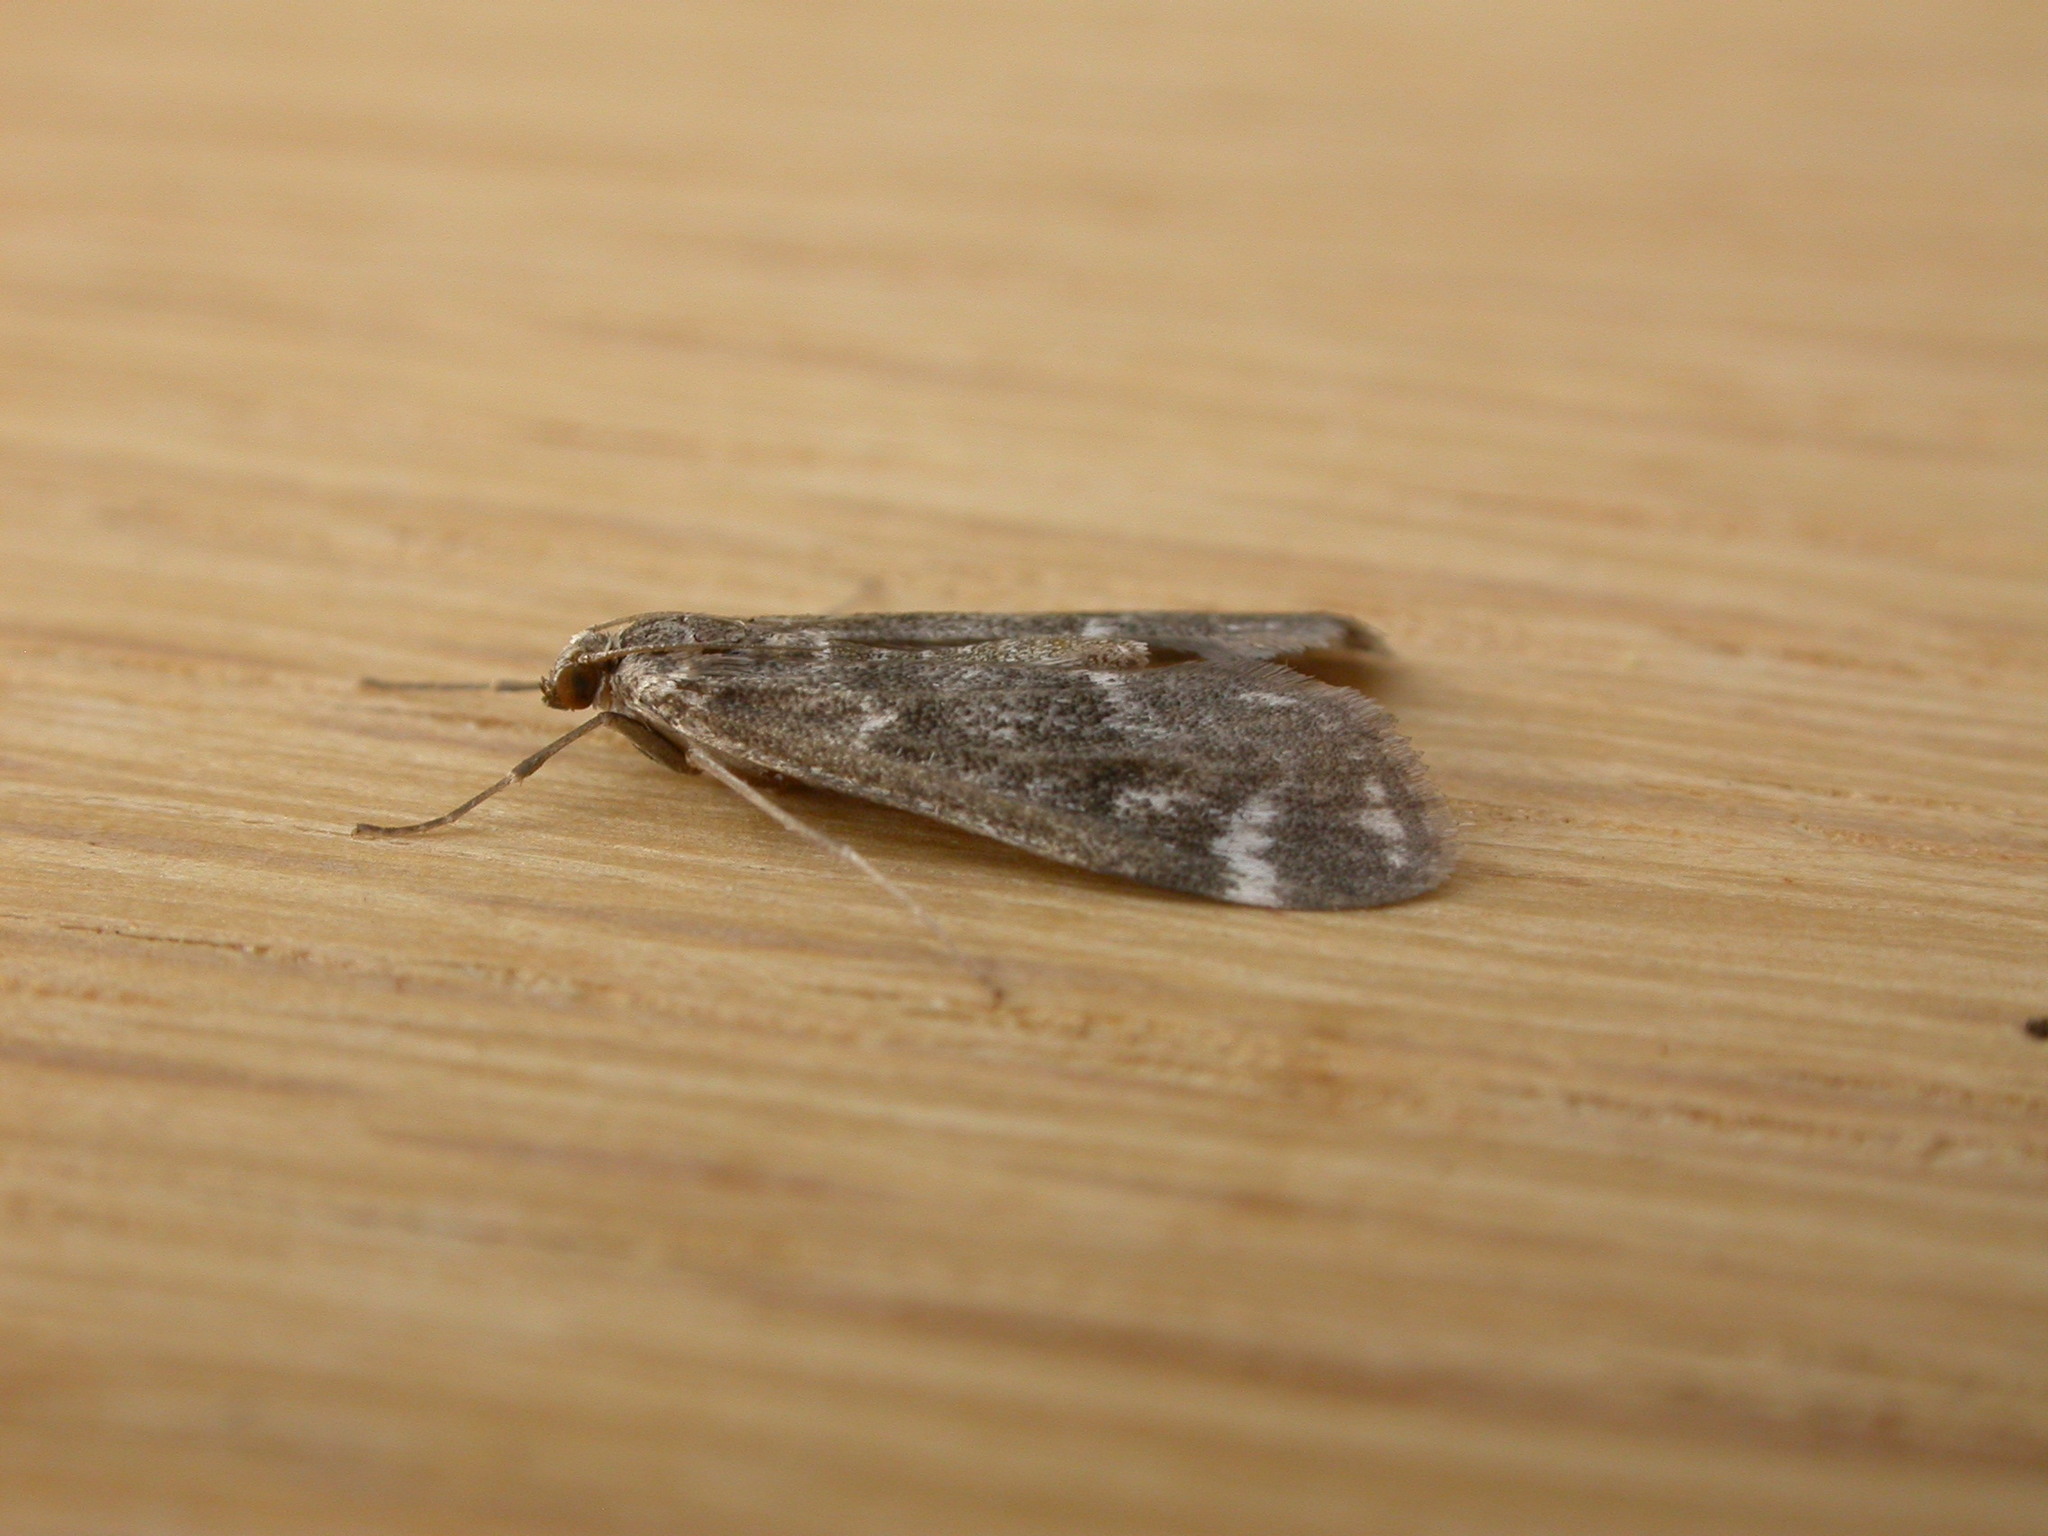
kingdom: Animalia
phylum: Arthropoda
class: Insecta
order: Lepidoptera
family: Crambidae
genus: Hygraula
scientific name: Hygraula nitens
